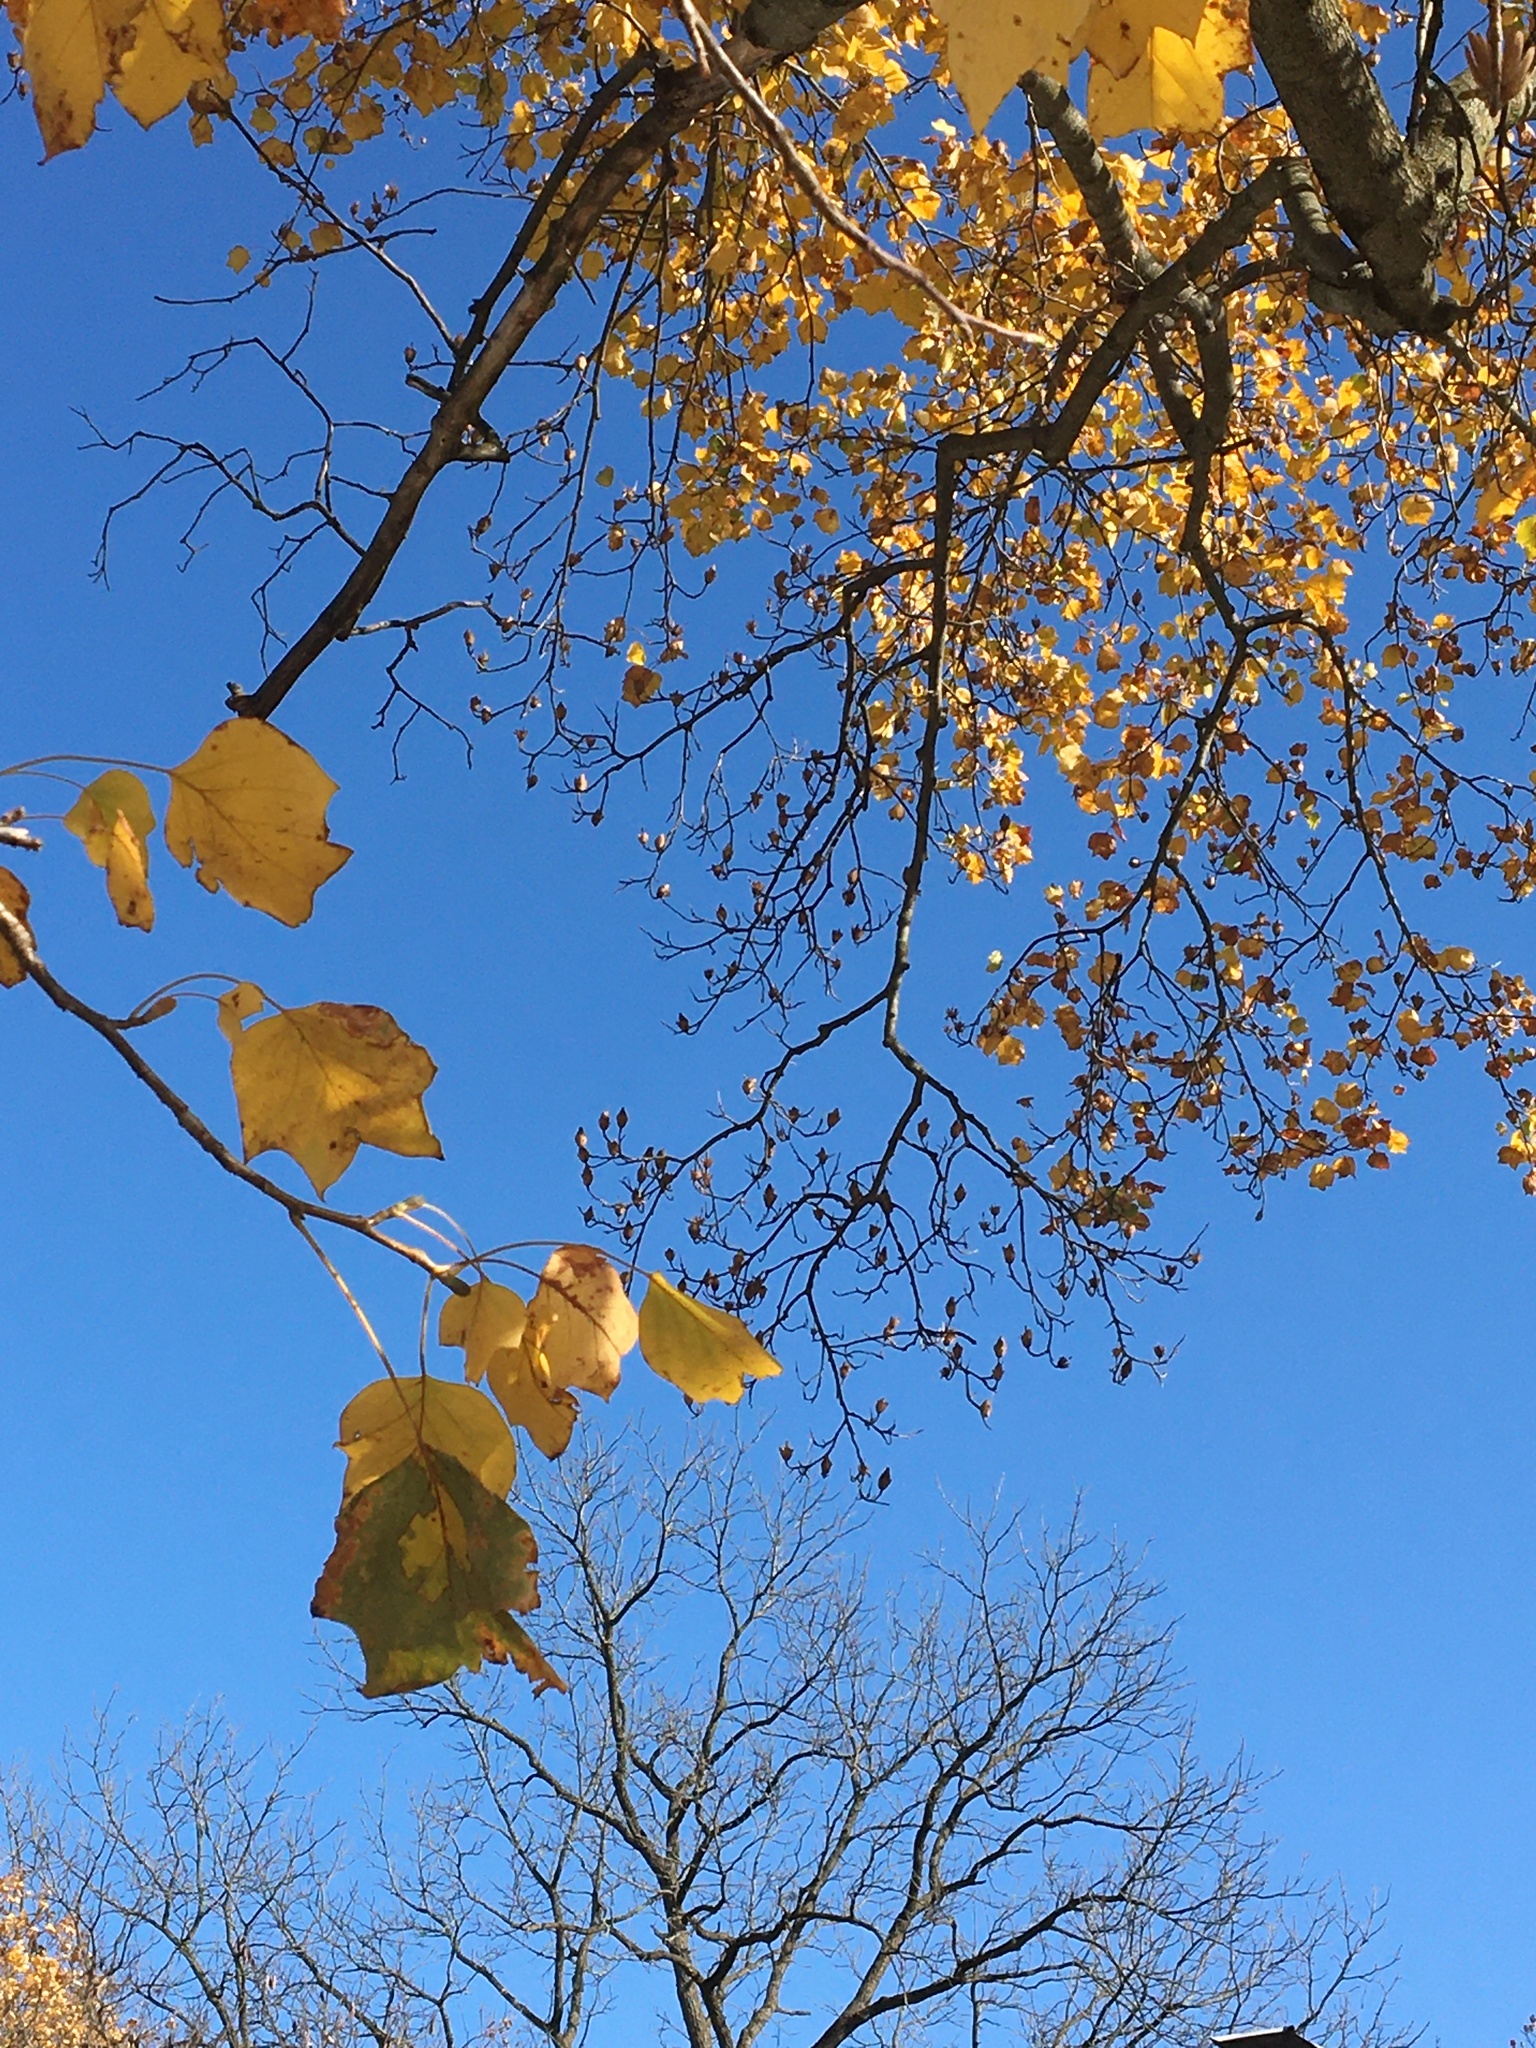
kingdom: Plantae
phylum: Tracheophyta
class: Magnoliopsida
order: Magnoliales
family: Magnoliaceae
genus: Liriodendron
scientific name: Liriodendron tulipifera
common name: Tulip tree
